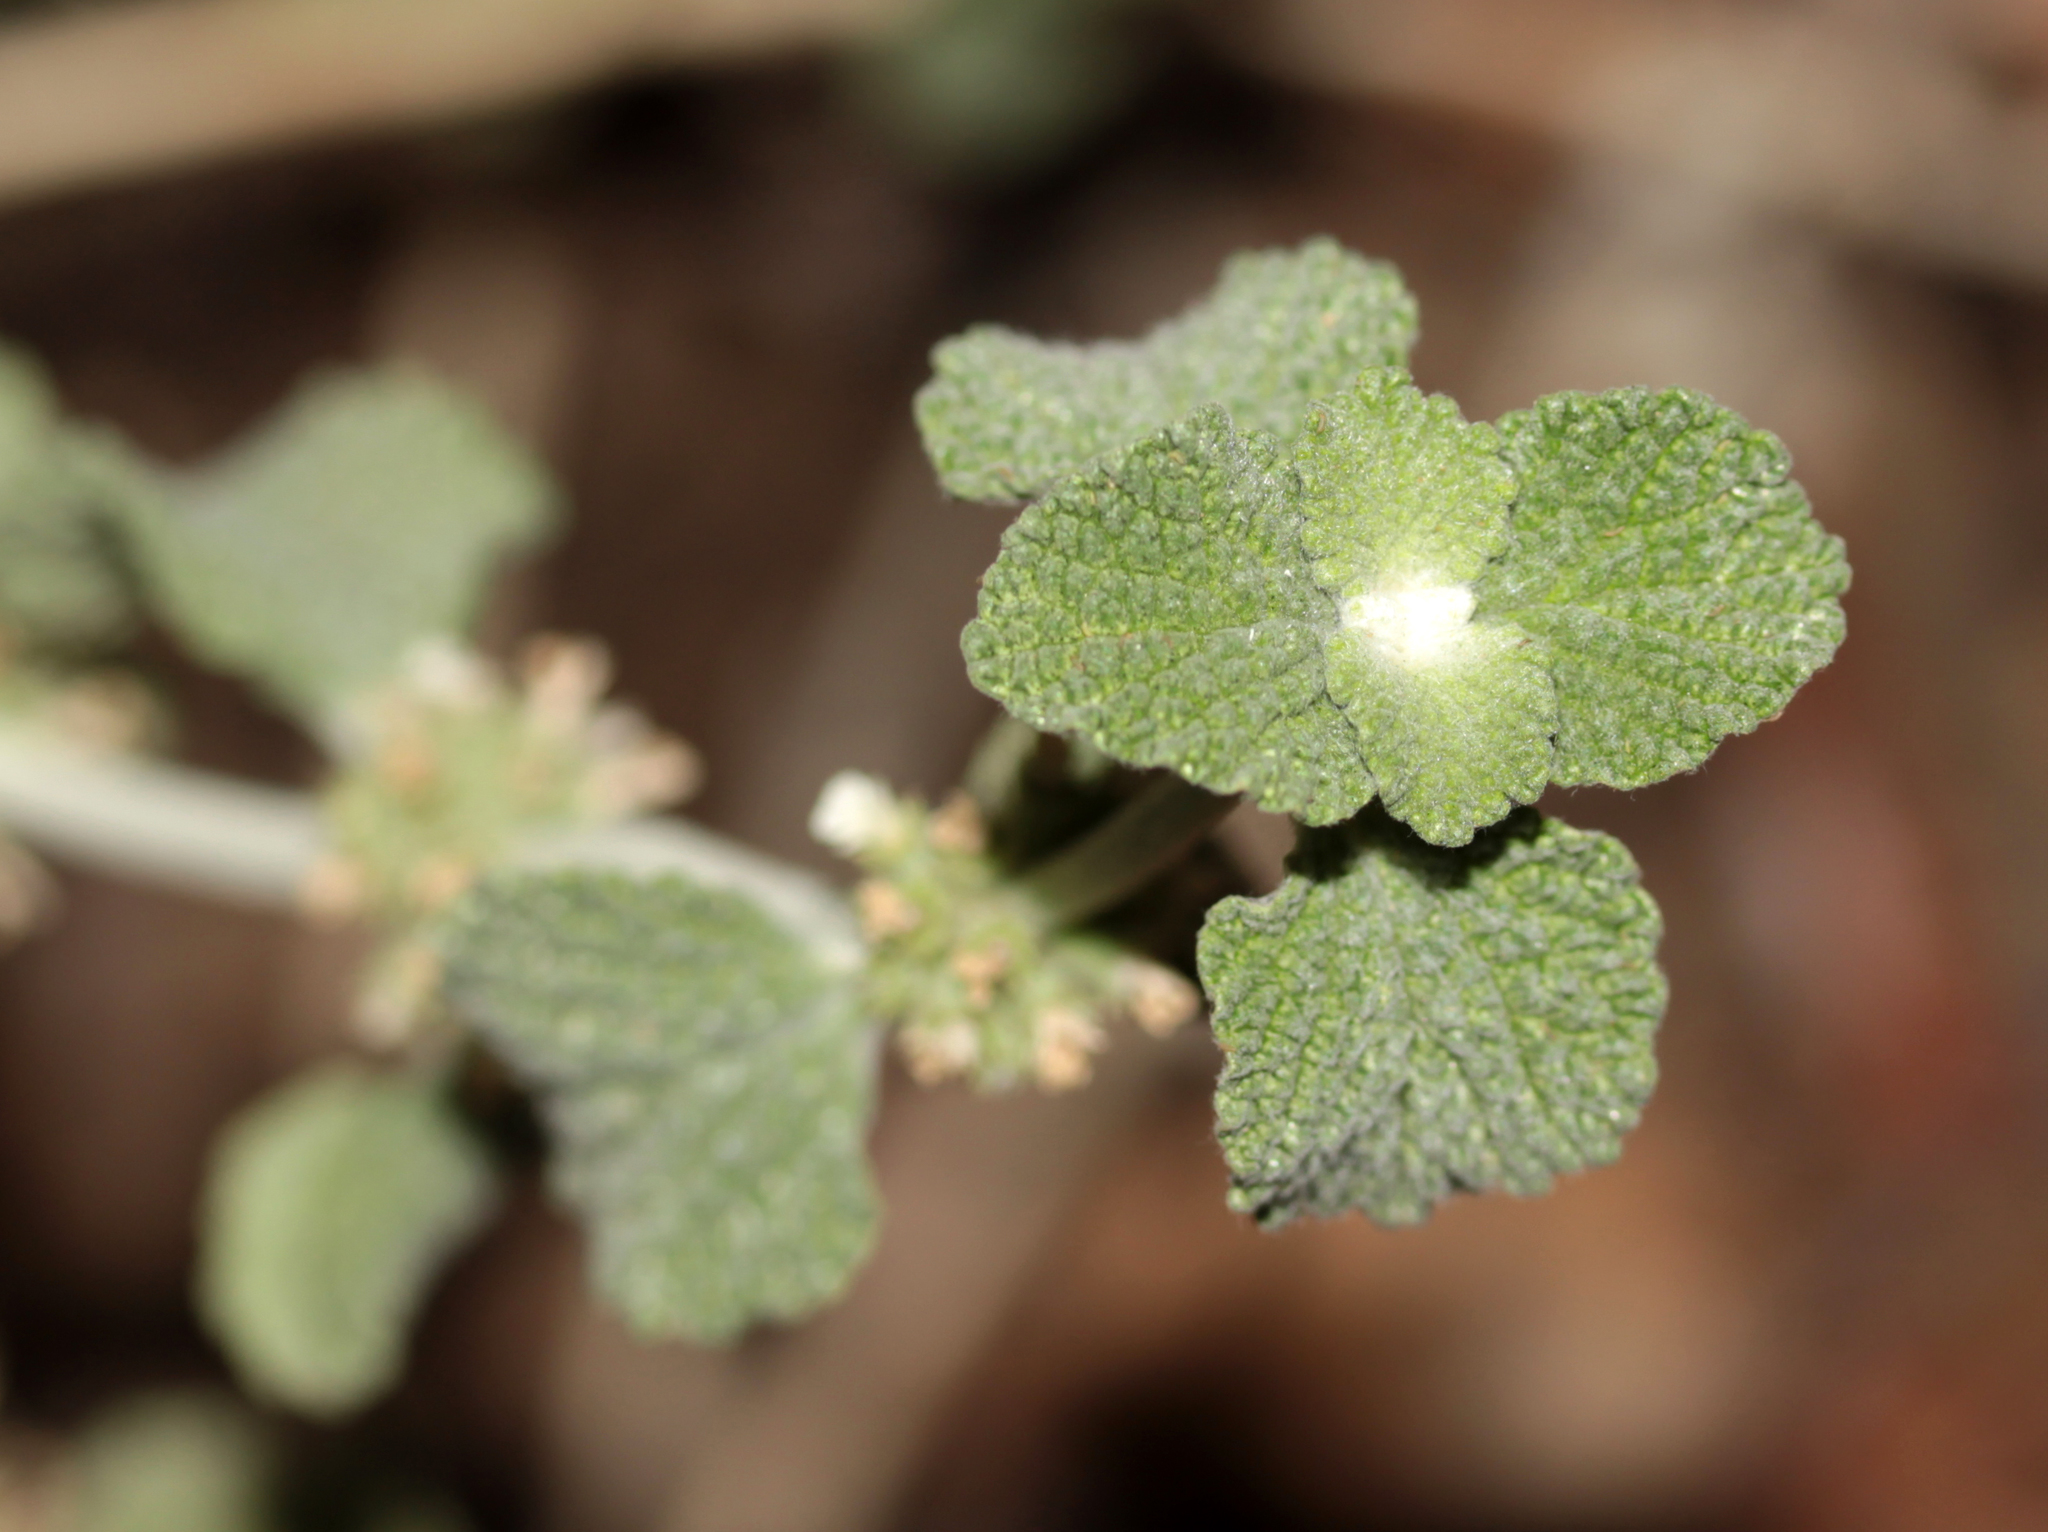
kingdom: Plantae
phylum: Tracheophyta
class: Magnoliopsida
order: Lamiales
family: Lamiaceae
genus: Marrubium
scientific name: Marrubium vulgare
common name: Horehound
